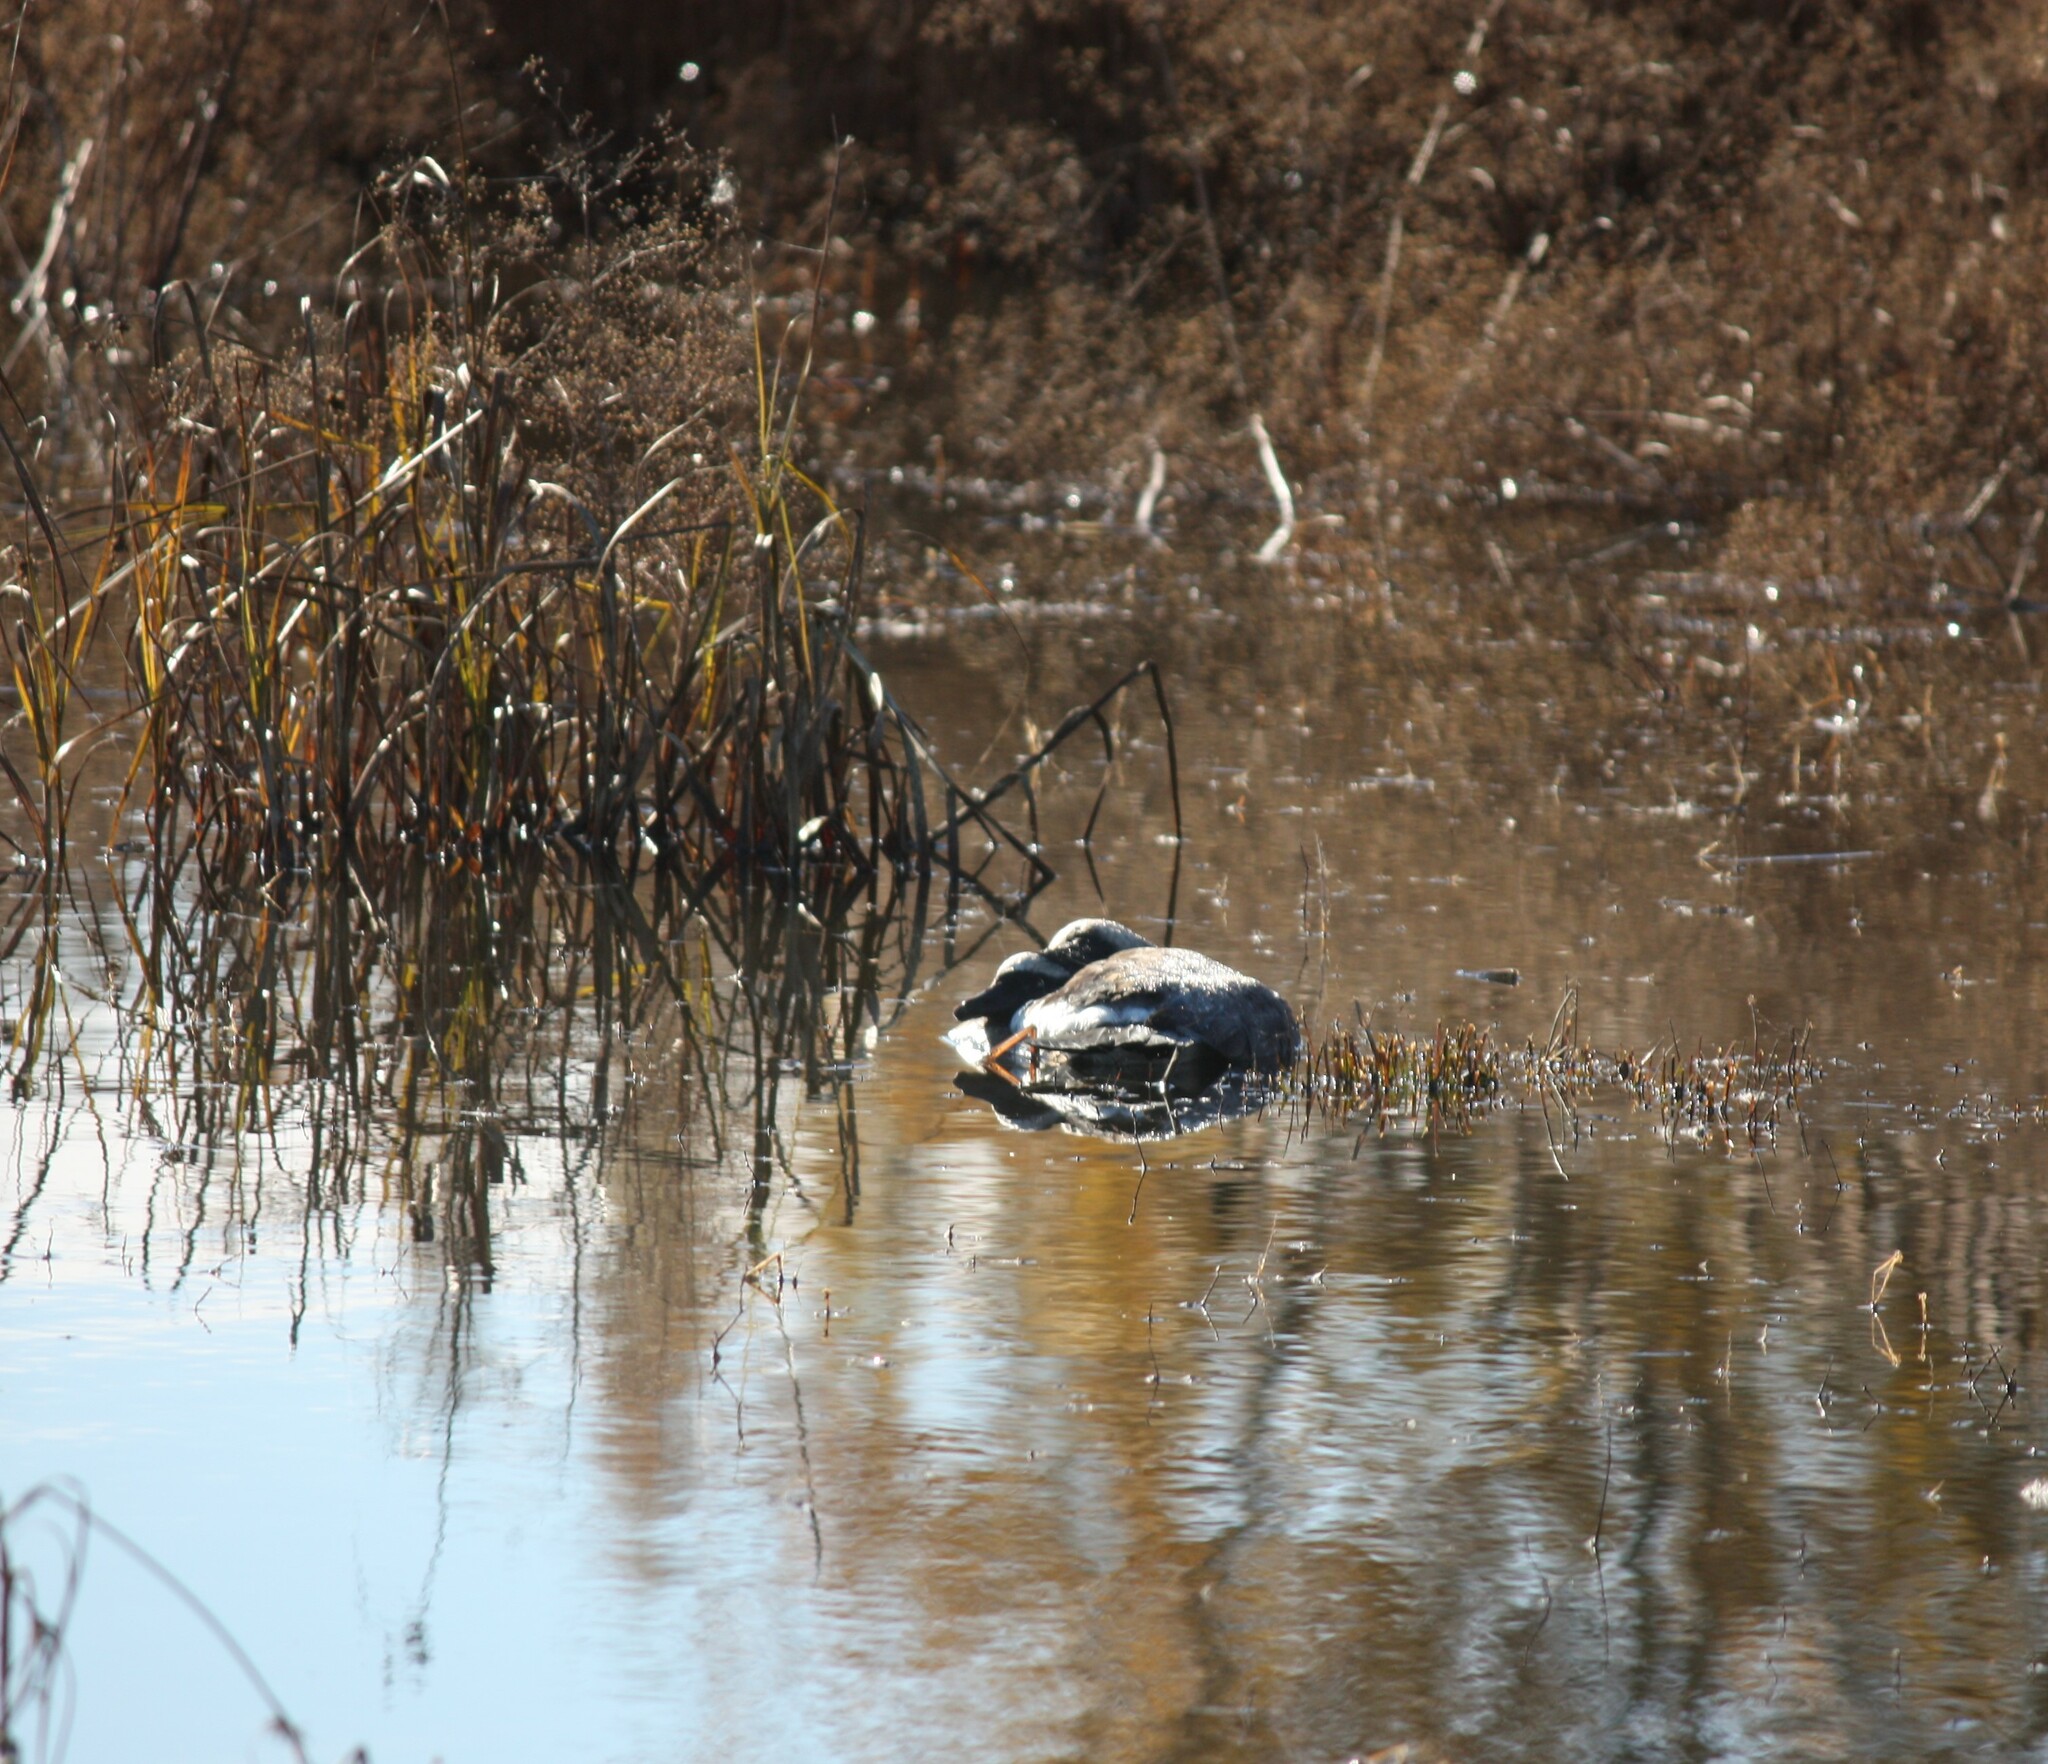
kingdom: Animalia
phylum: Chordata
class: Aves
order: Anseriformes
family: Anatidae
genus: Branta
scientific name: Branta canadensis
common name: Canada goose
